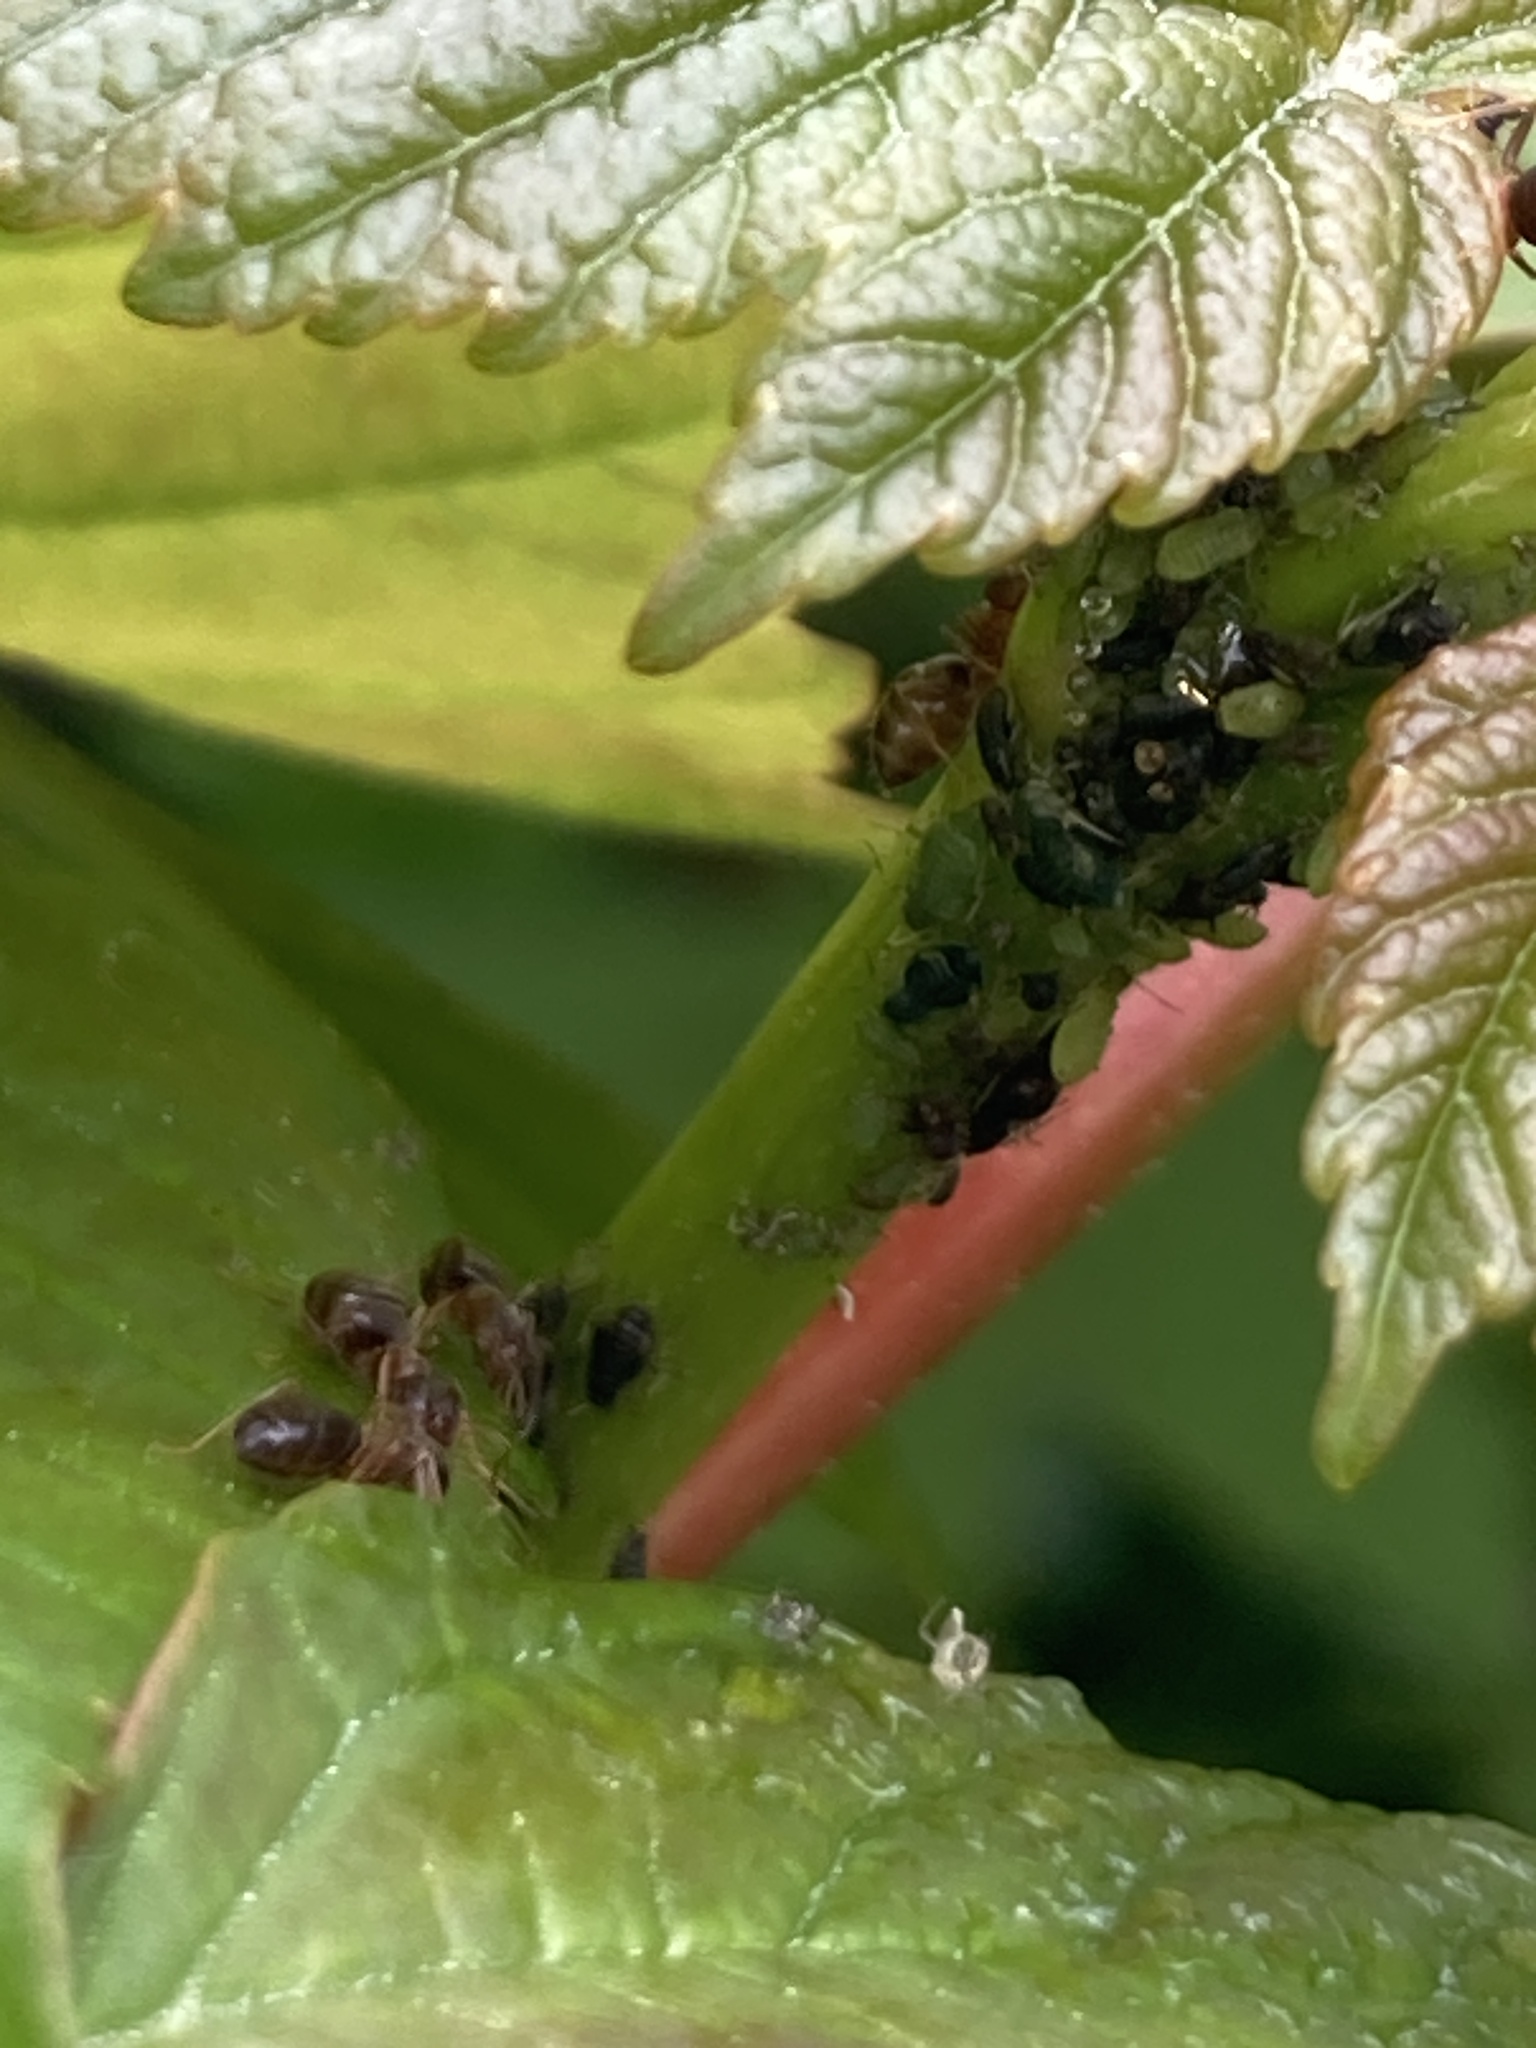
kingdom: Animalia
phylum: Arthropoda
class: Insecta
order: Hymenoptera
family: Formicidae
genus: Lasius
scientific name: Lasius brunneus
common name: Brown ant
